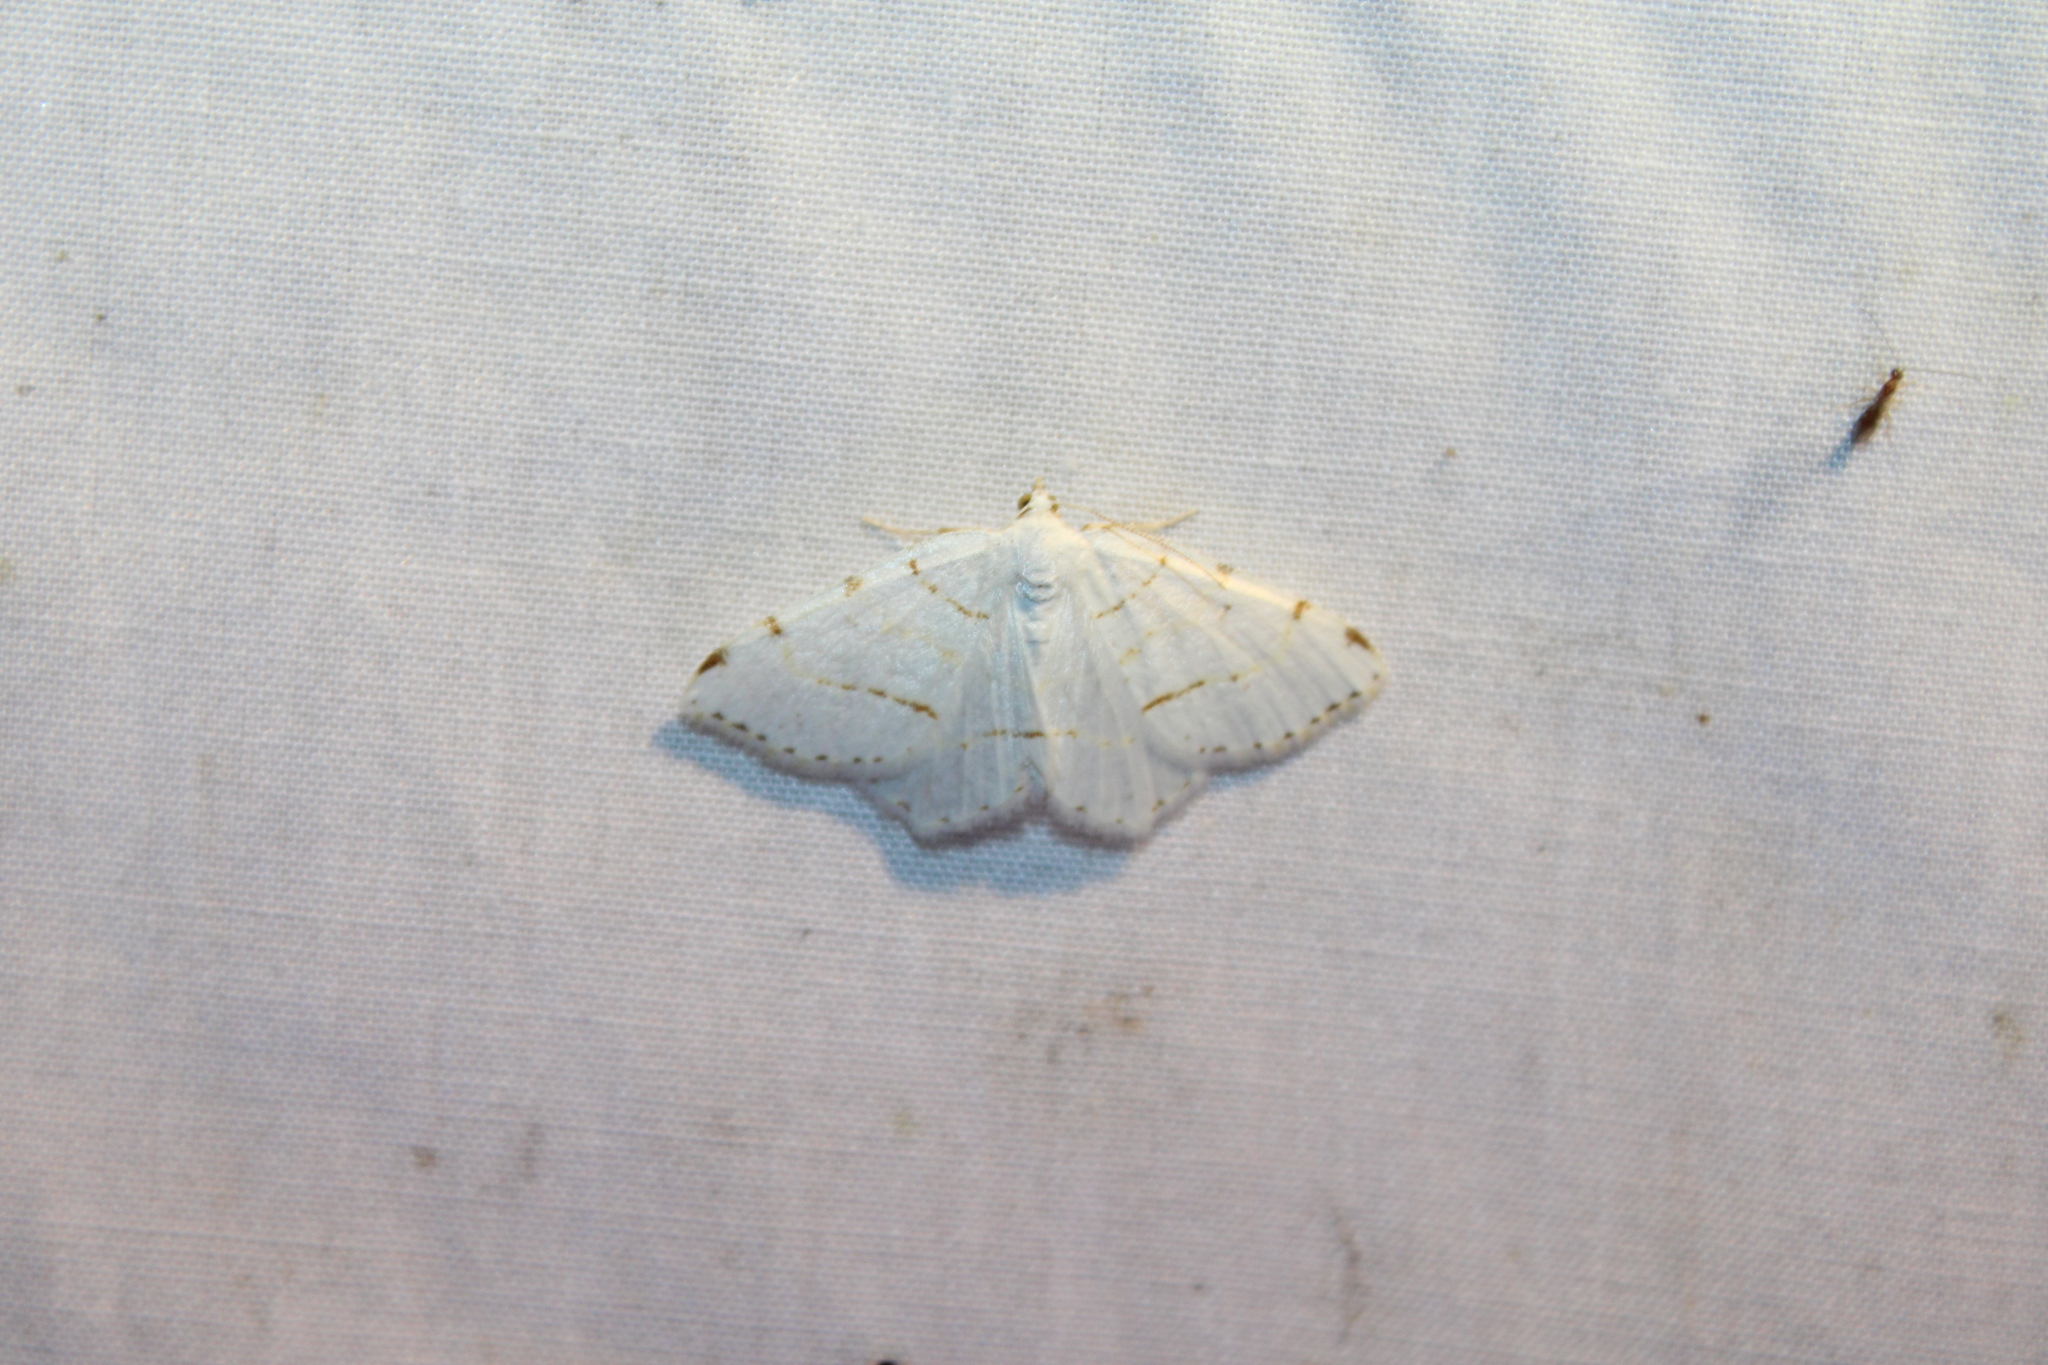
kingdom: Animalia
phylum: Arthropoda
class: Insecta
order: Lepidoptera
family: Geometridae
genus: Macaria
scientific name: Macaria pustularia
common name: Lesser maple spanworm moth
